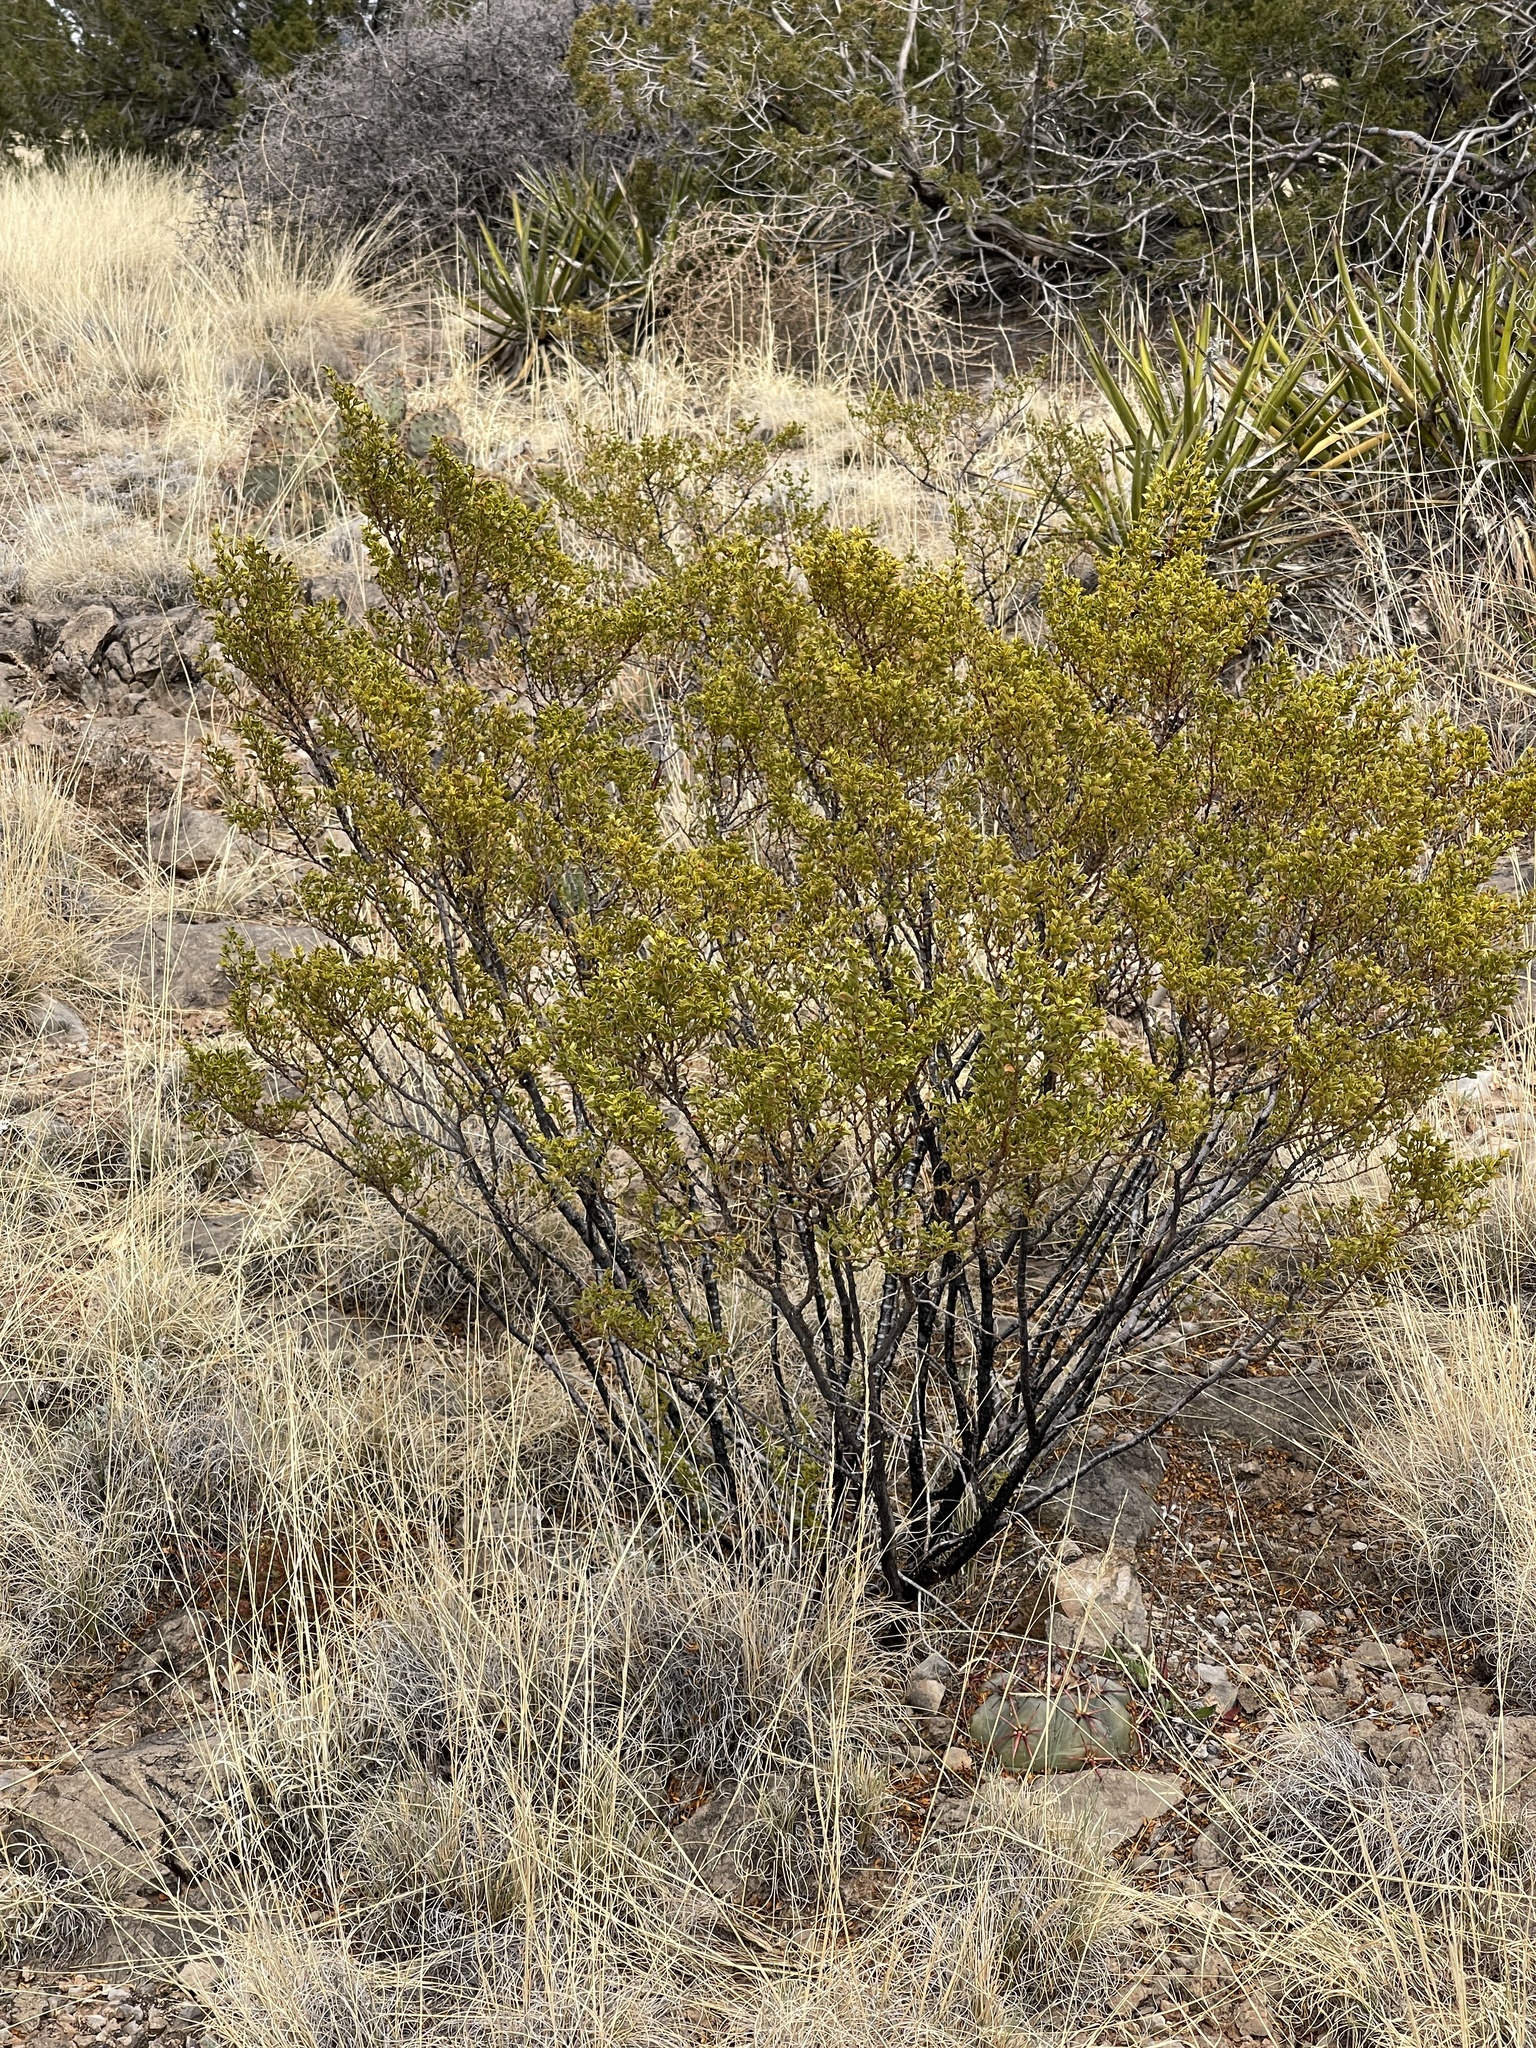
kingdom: Plantae
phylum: Tracheophyta
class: Magnoliopsida
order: Zygophyllales
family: Zygophyllaceae
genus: Larrea
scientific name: Larrea tridentata
